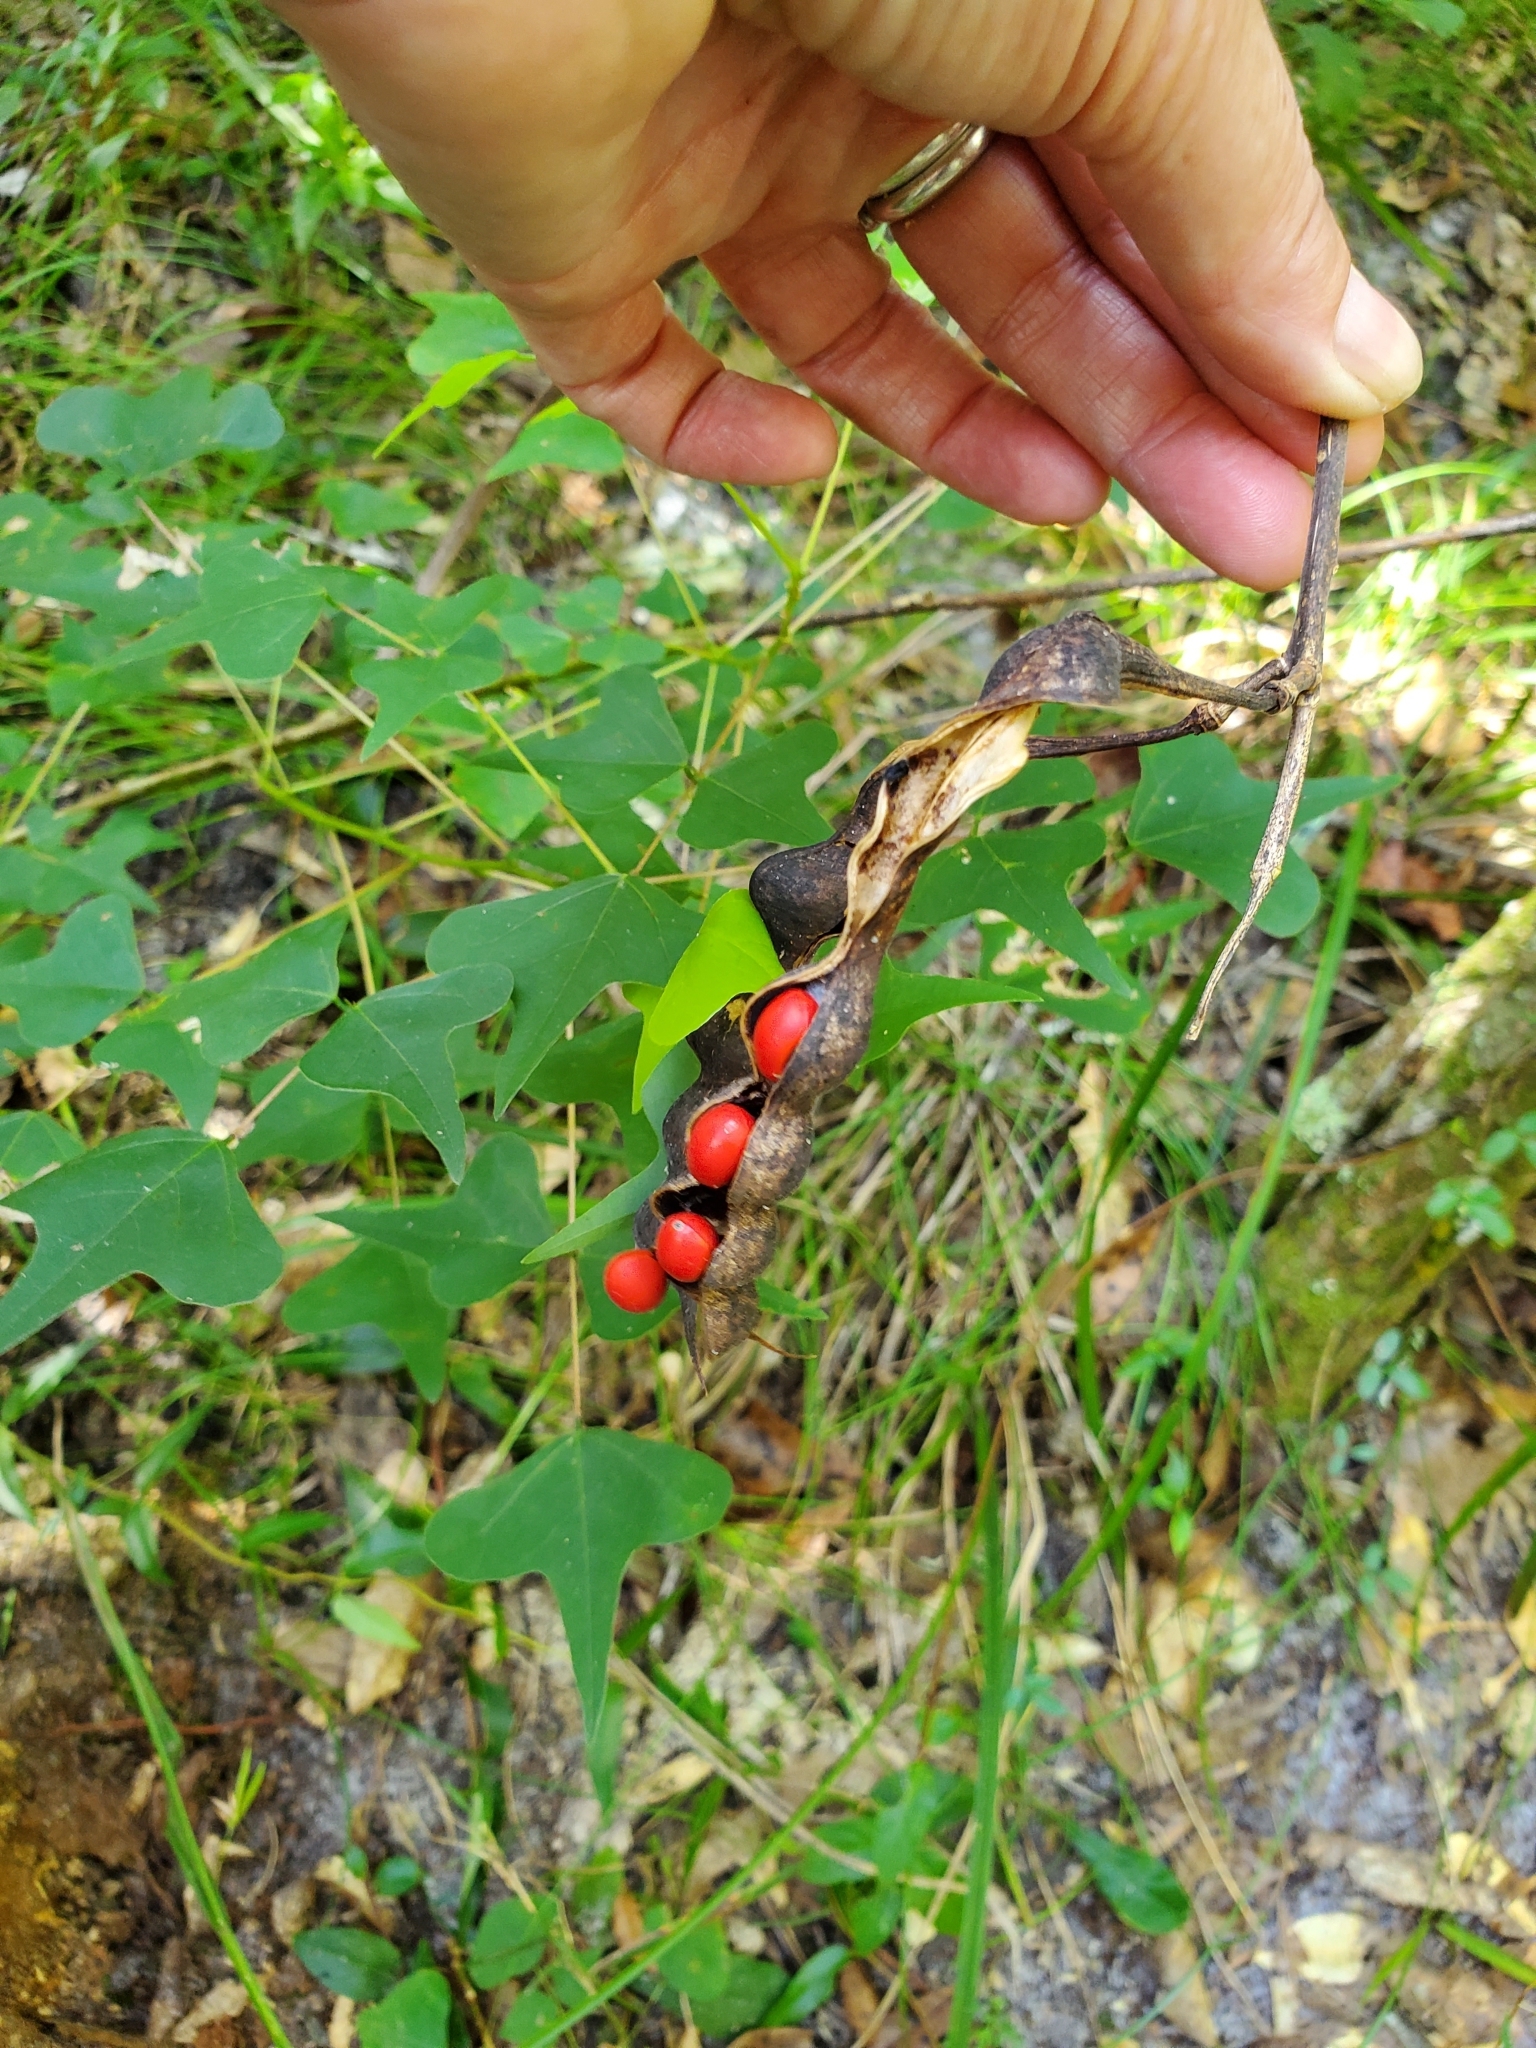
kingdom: Plantae
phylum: Tracheophyta
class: Magnoliopsida
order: Fabales
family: Fabaceae
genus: Erythrina
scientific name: Erythrina herbacea
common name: Coral-bean
